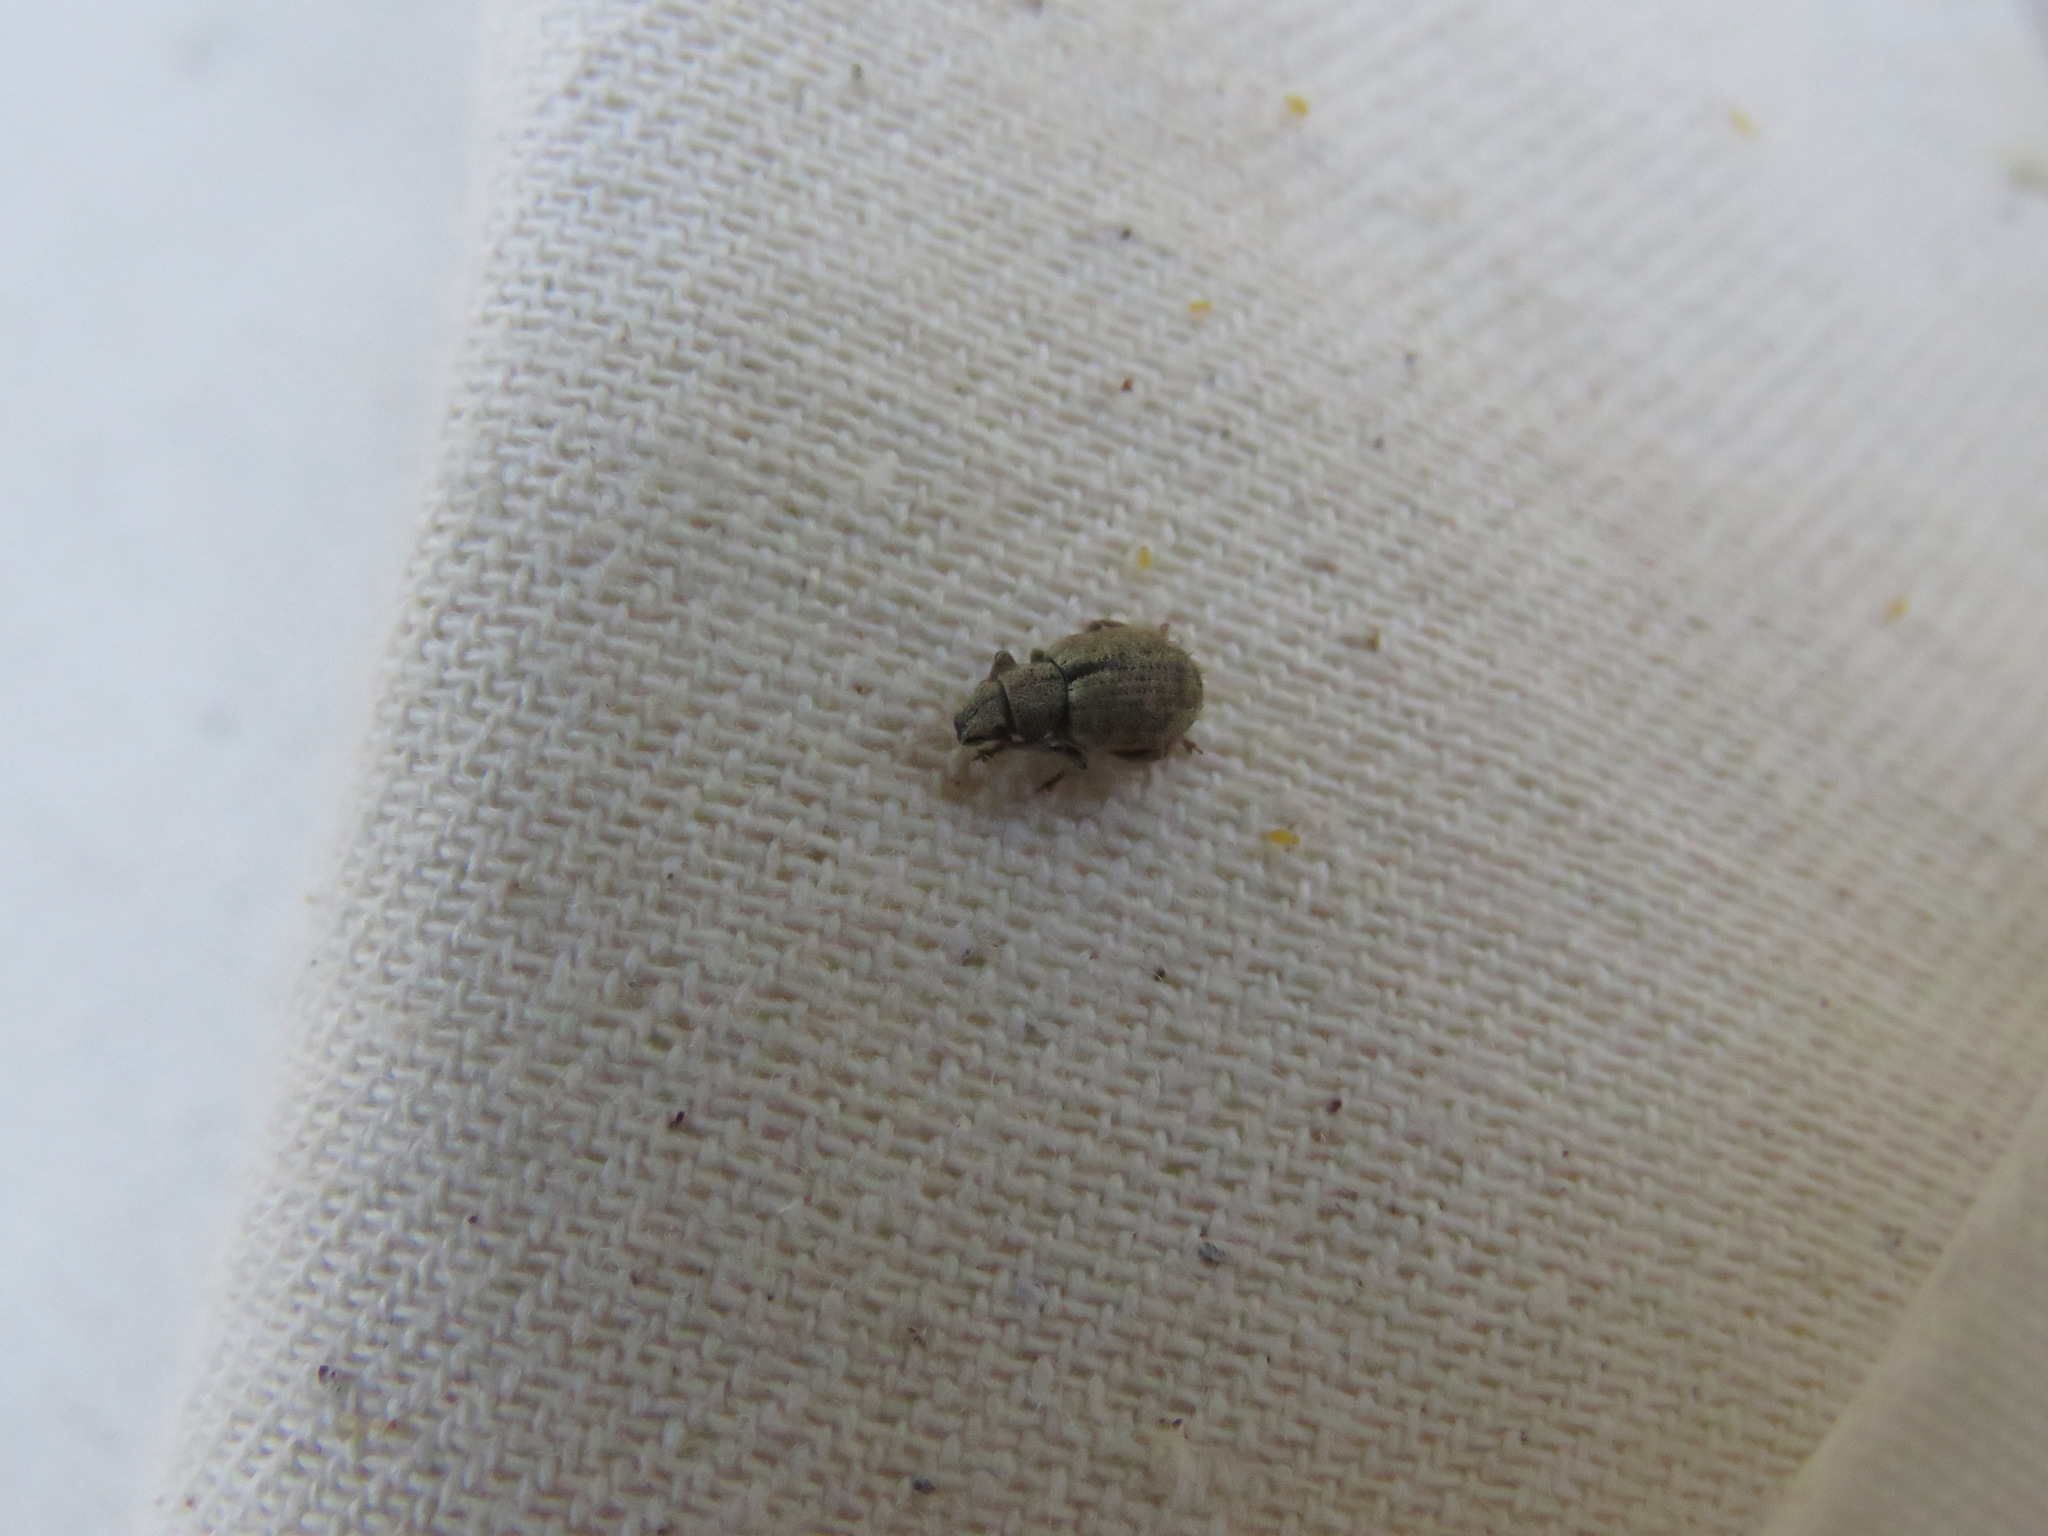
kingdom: Animalia
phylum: Arthropoda
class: Insecta
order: Coleoptera
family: Curculionidae
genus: Strophosoma
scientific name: Strophosoma melanogrammum
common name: Weevil
